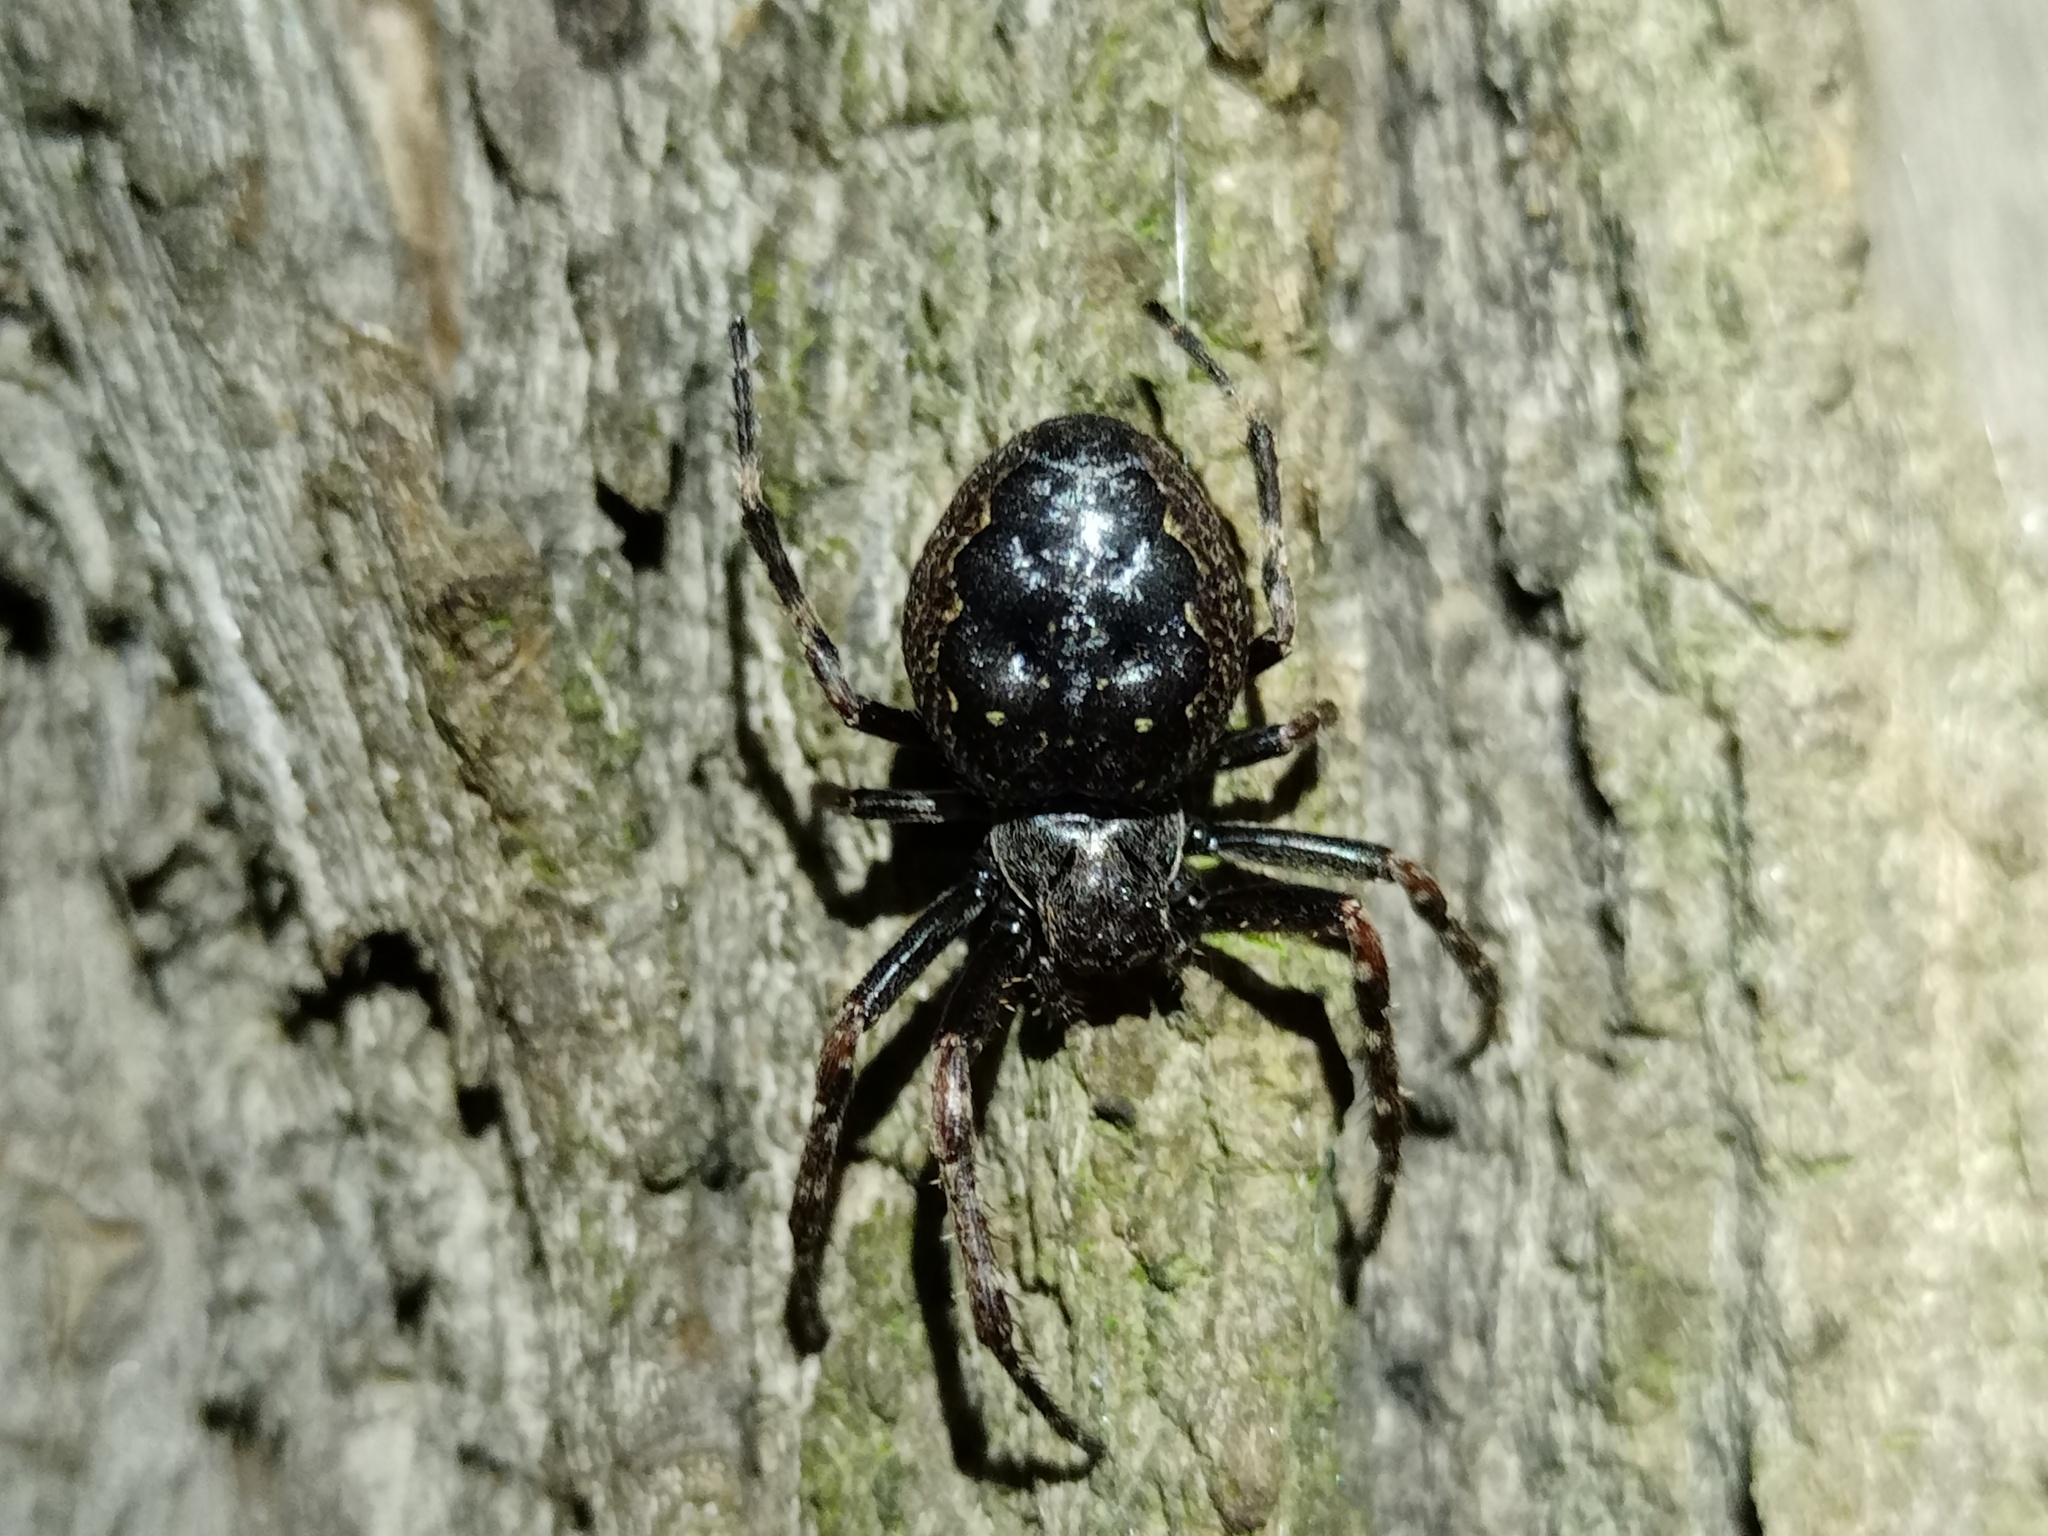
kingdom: Animalia
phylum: Arthropoda
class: Arachnida
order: Araneae
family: Araneidae
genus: Nuctenea
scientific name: Nuctenea umbratica
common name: Toad spider
